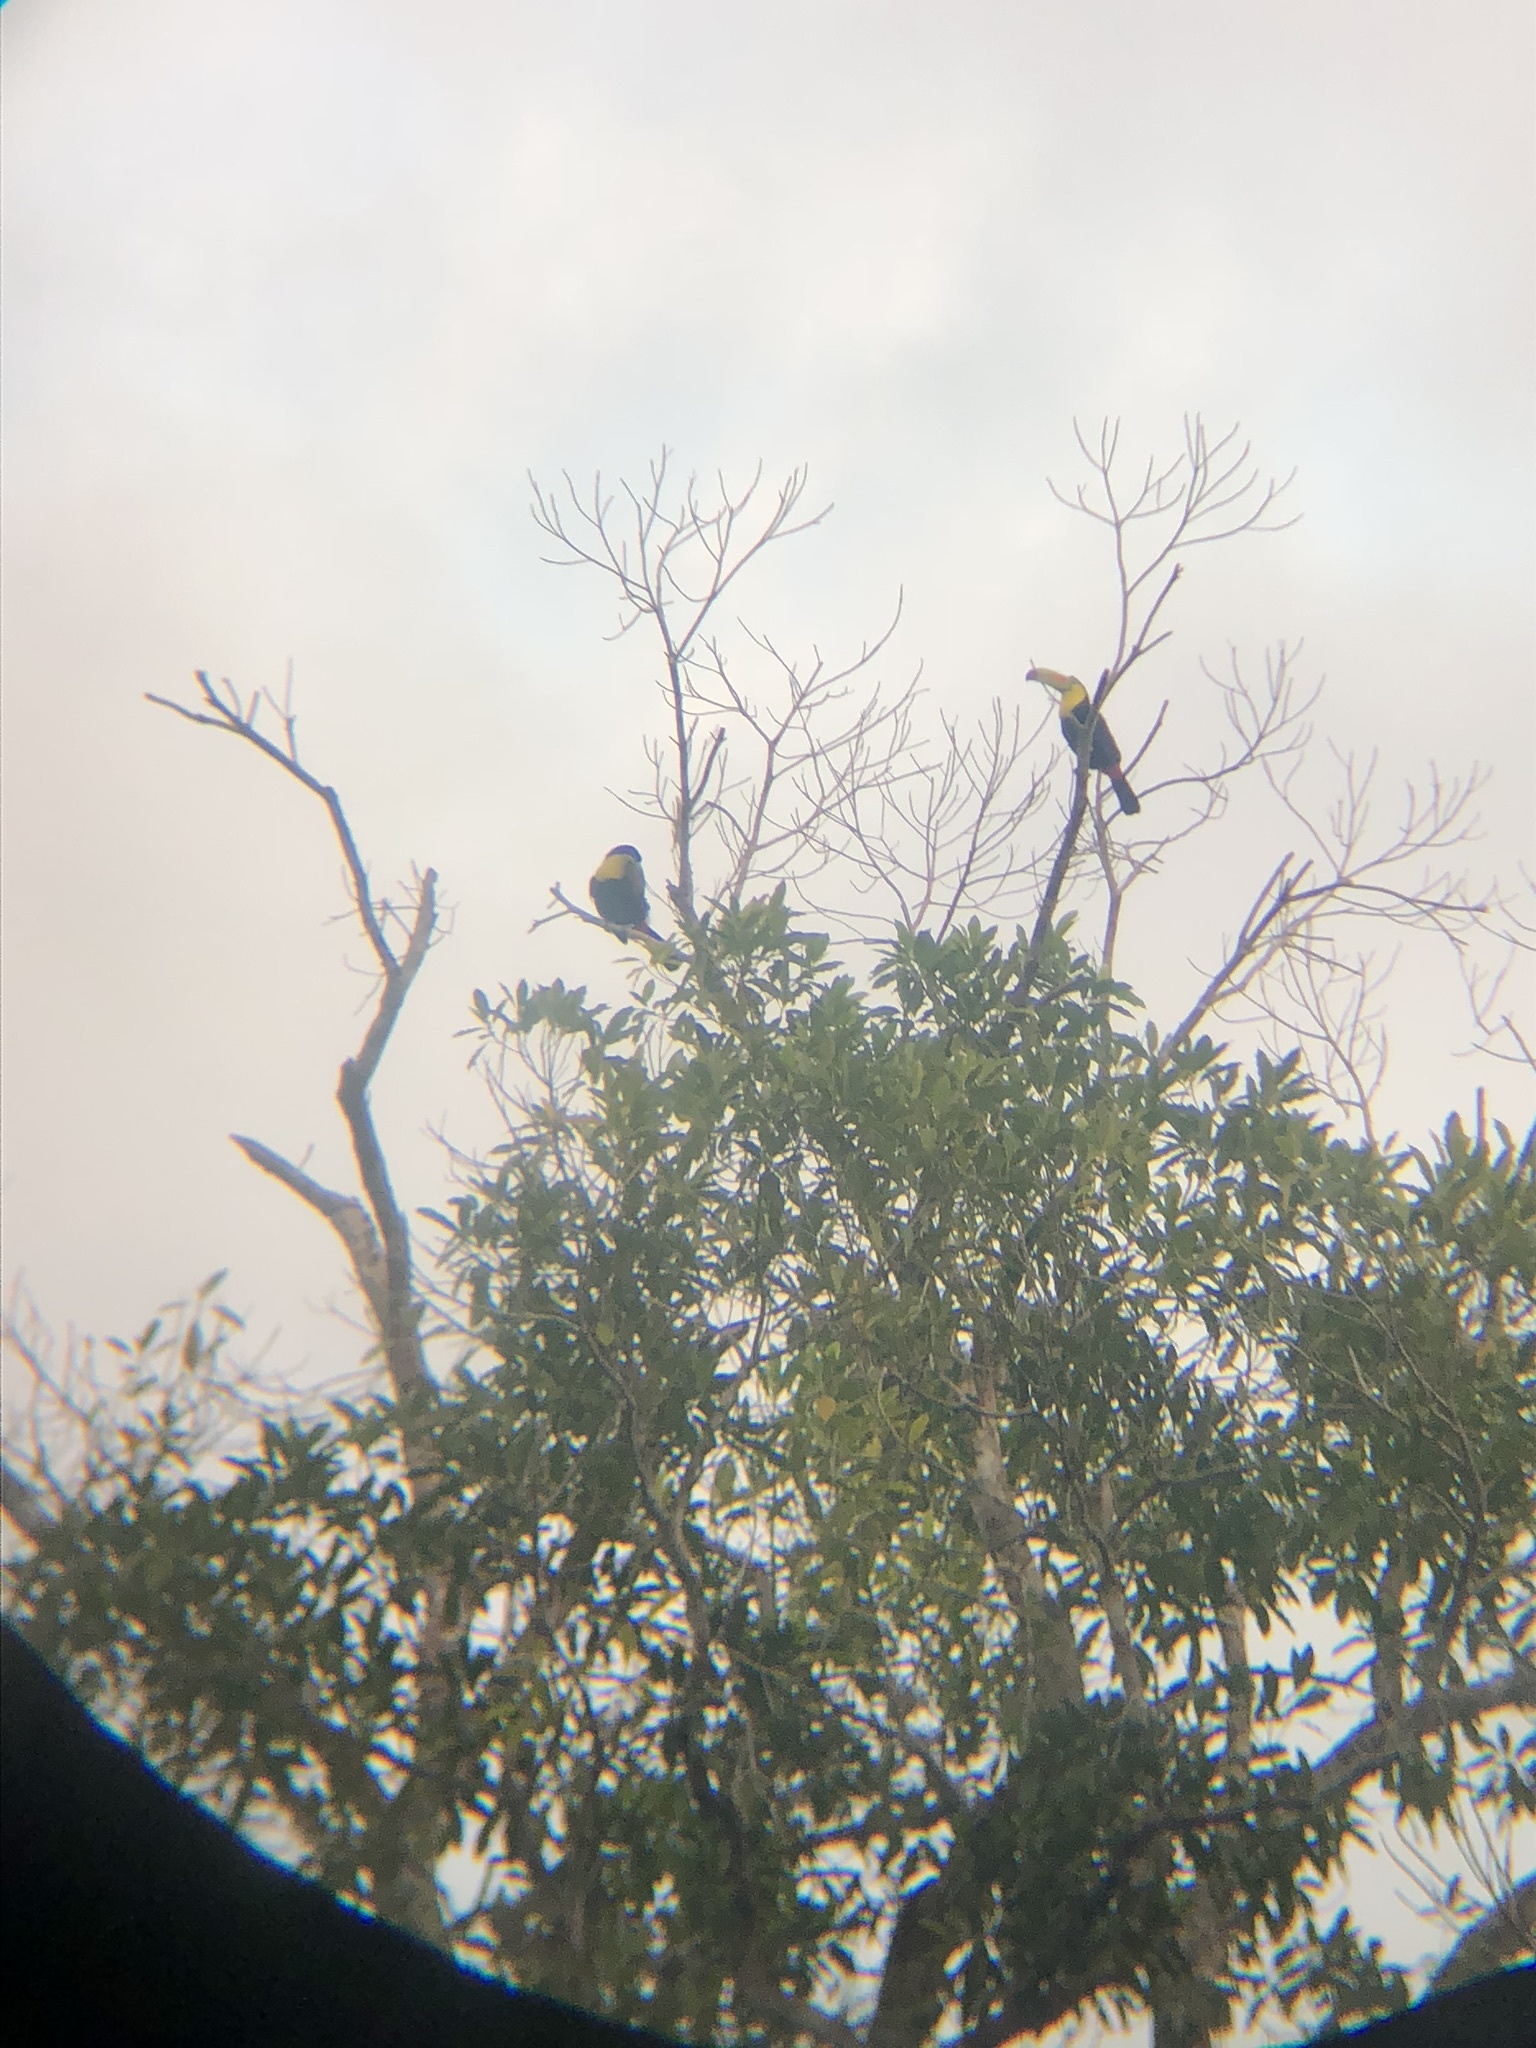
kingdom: Animalia
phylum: Chordata
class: Aves
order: Piciformes
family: Ramphastidae
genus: Ramphastos
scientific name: Ramphastos sulfuratus
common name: Keel-billed toucan
